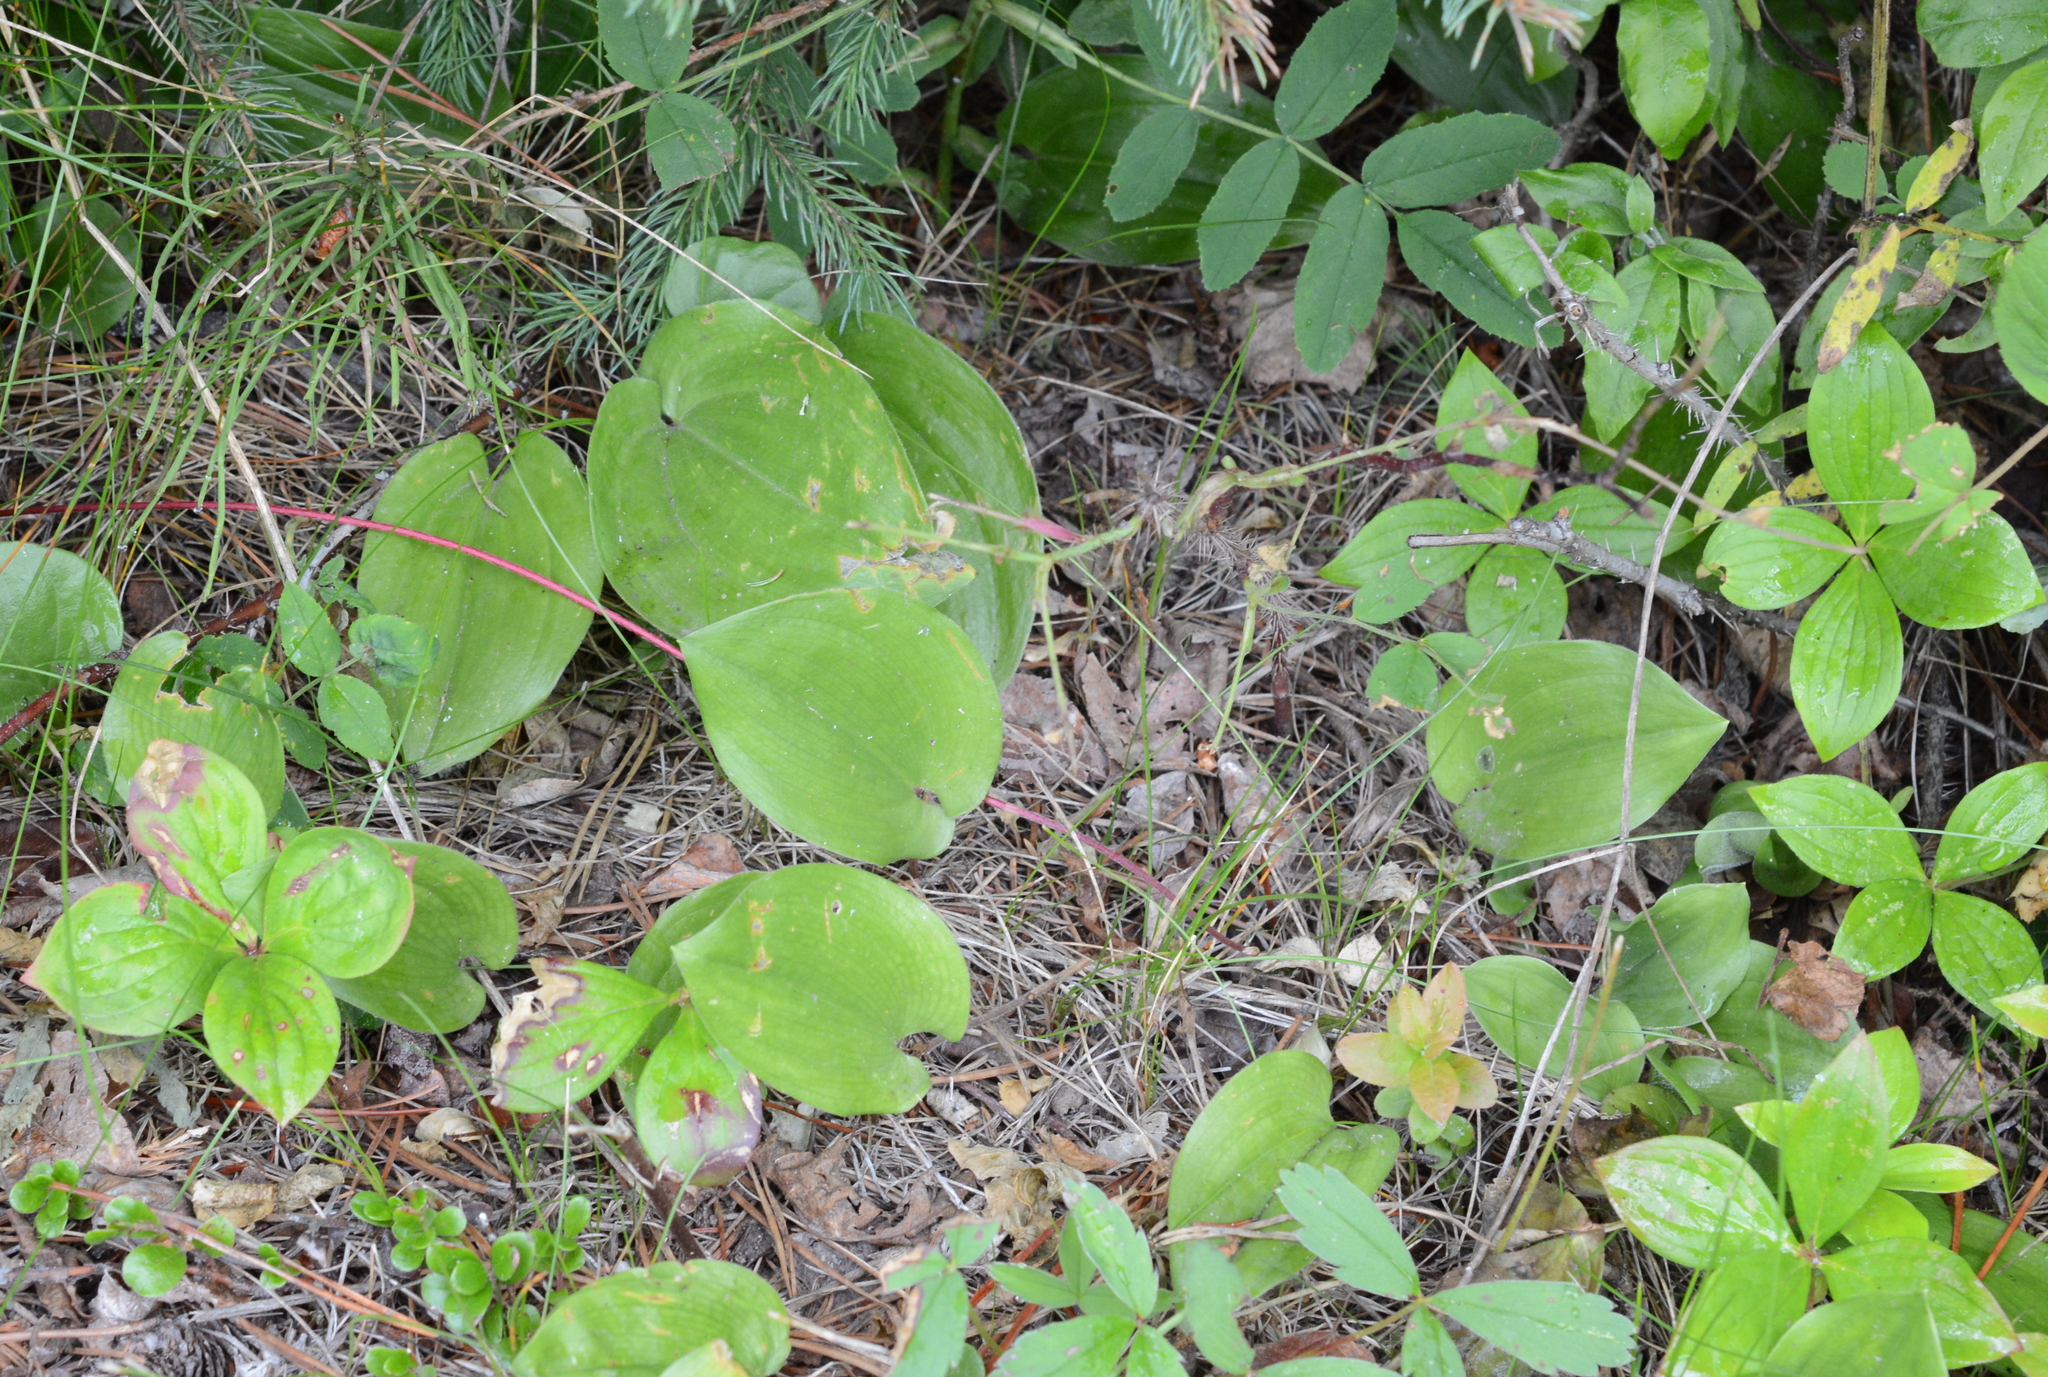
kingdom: Plantae
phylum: Tracheophyta
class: Liliopsida
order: Asparagales
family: Asparagaceae
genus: Maianthemum
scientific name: Maianthemum canadense
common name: False lily-of-the-valley
